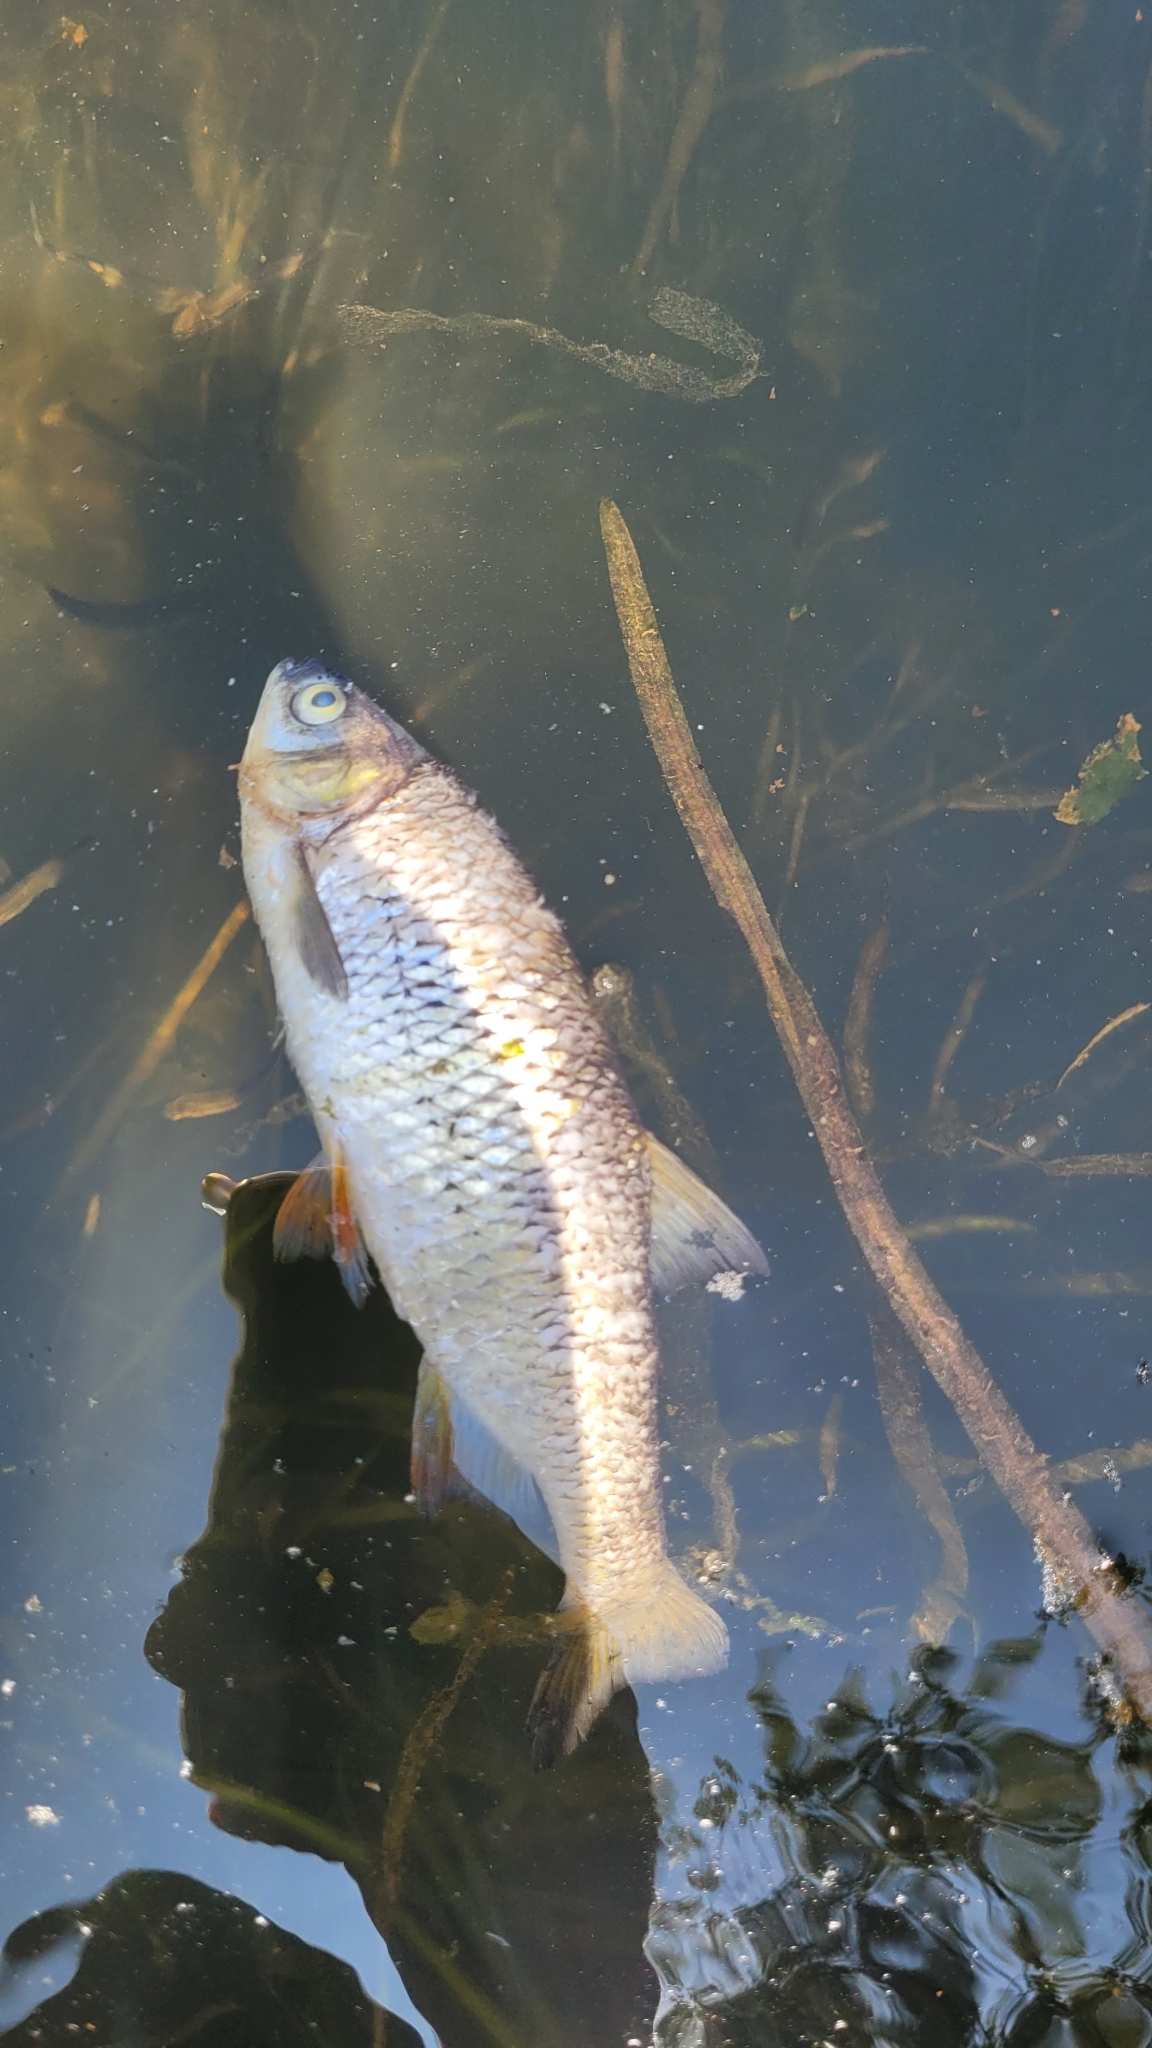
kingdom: Animalia
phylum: Chordata
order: Cypriniformes
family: Cyprinidae
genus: Notemigonus
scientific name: Notemigonus crysoleucas
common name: Golden shiner
